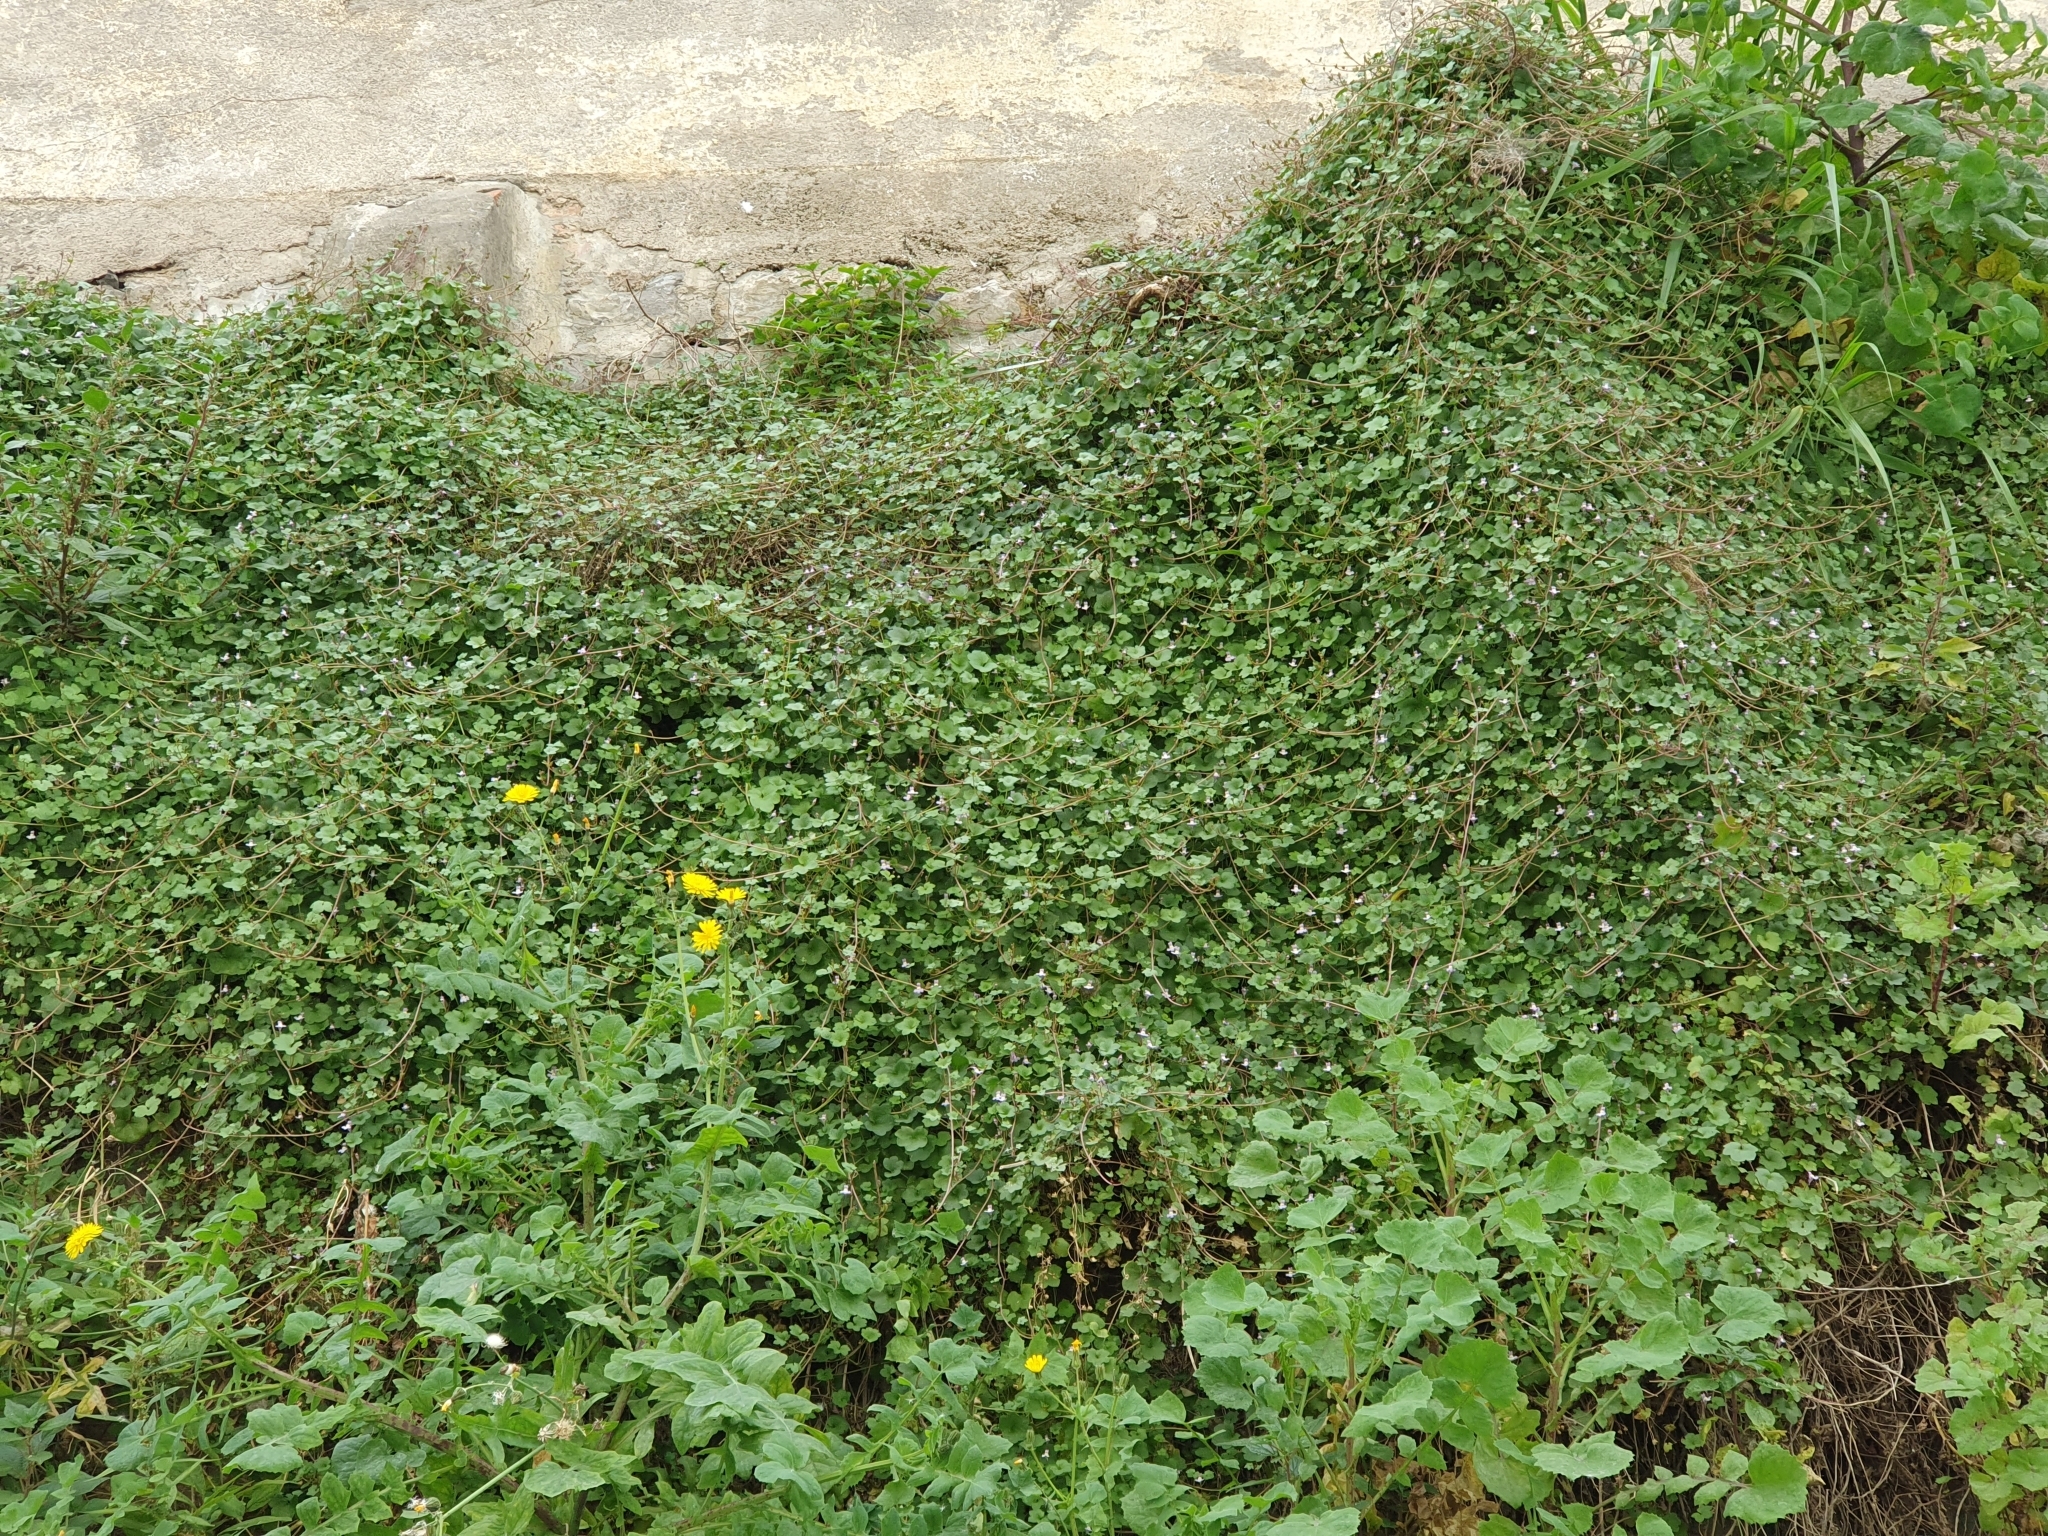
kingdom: Plantae
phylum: Tracheophyta
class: Magnoliopsida
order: Lamiales
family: Plantaginaceae
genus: Cymbalaria
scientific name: Cymbalaria muralis
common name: Ivy-leaved toadflax
